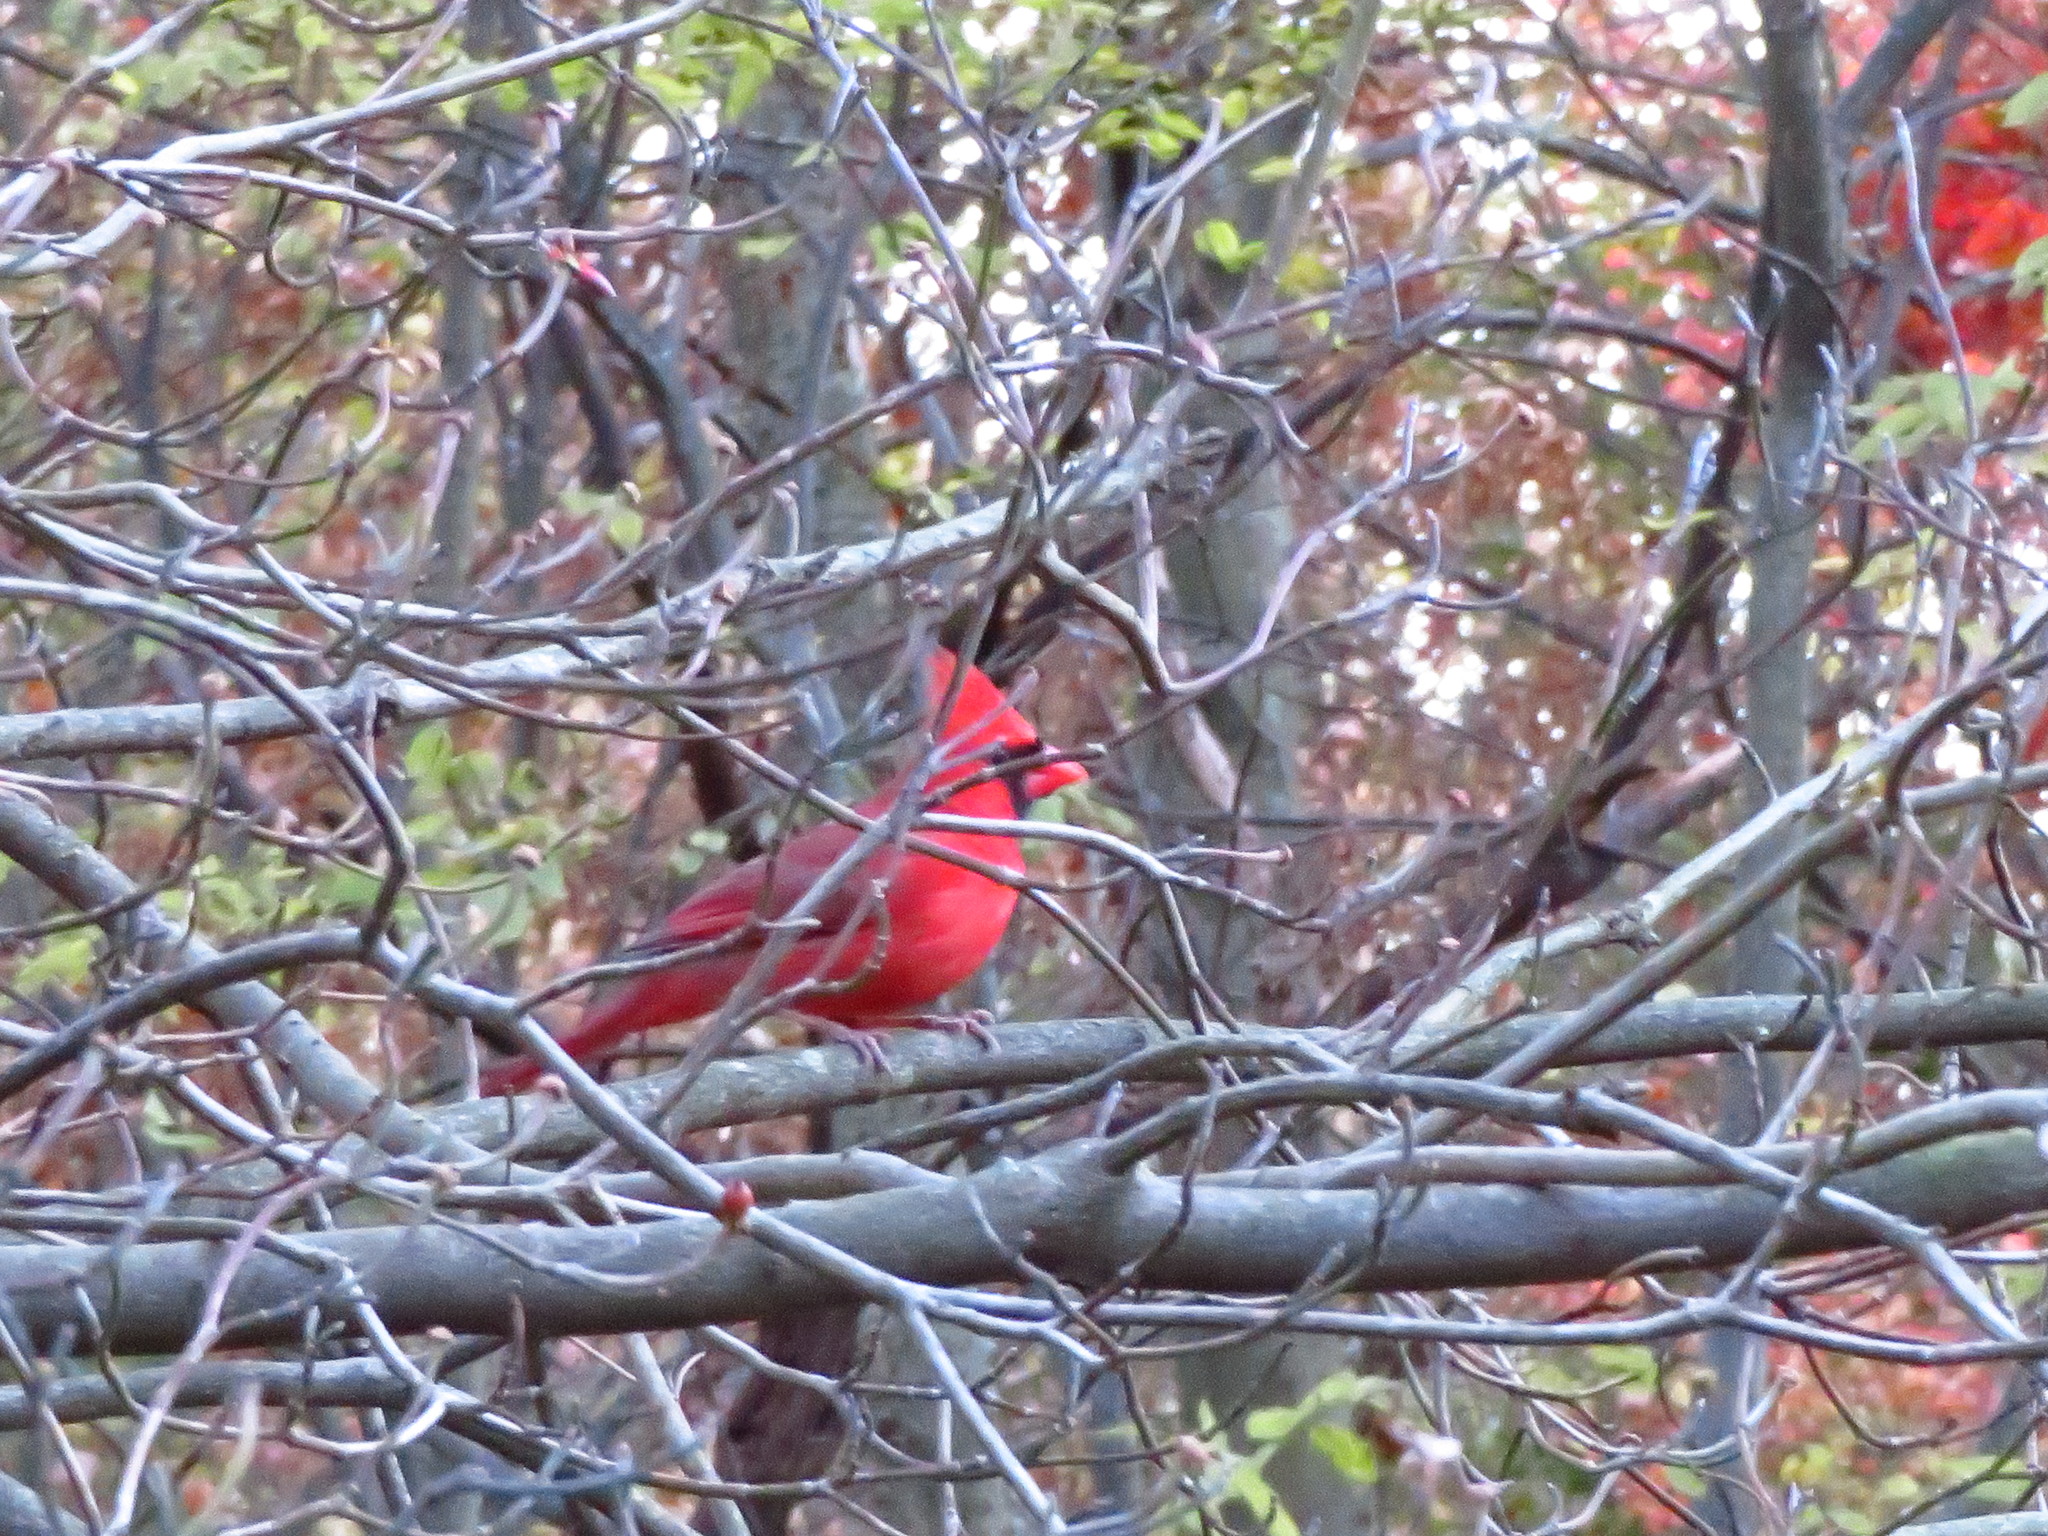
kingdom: Animalia
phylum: Chordata
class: Aves
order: Passeriformes
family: Cardinalidae
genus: Cardinalis
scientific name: Cardinalis cardinalis
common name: Northern cardinal
